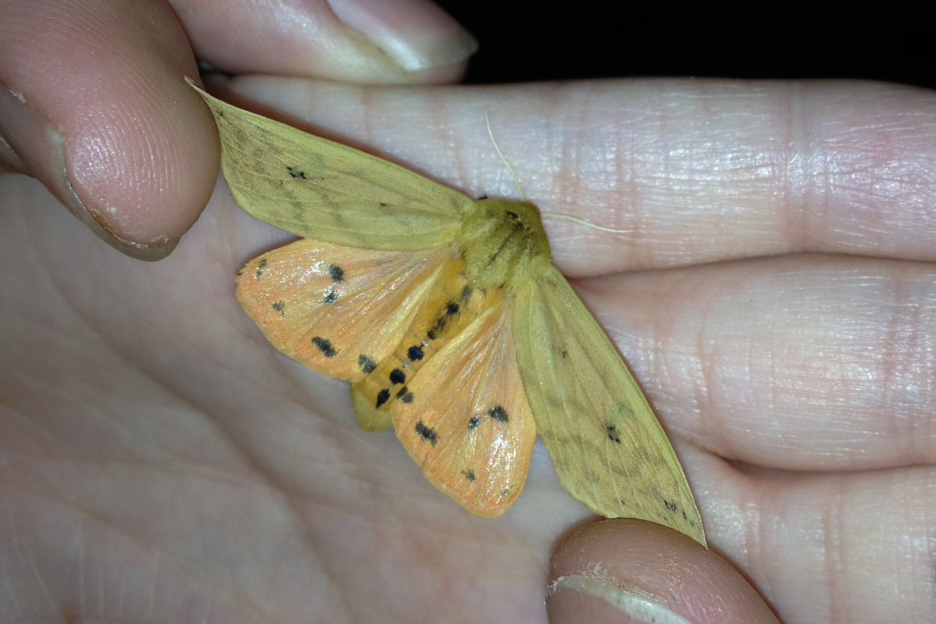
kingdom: Animalia
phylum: Arthropoda
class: Insecta
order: Lepidoptera
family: Erebidae
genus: Pyrrharctia
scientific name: Pyrrharctia isabella
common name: Isabella tiger moth
